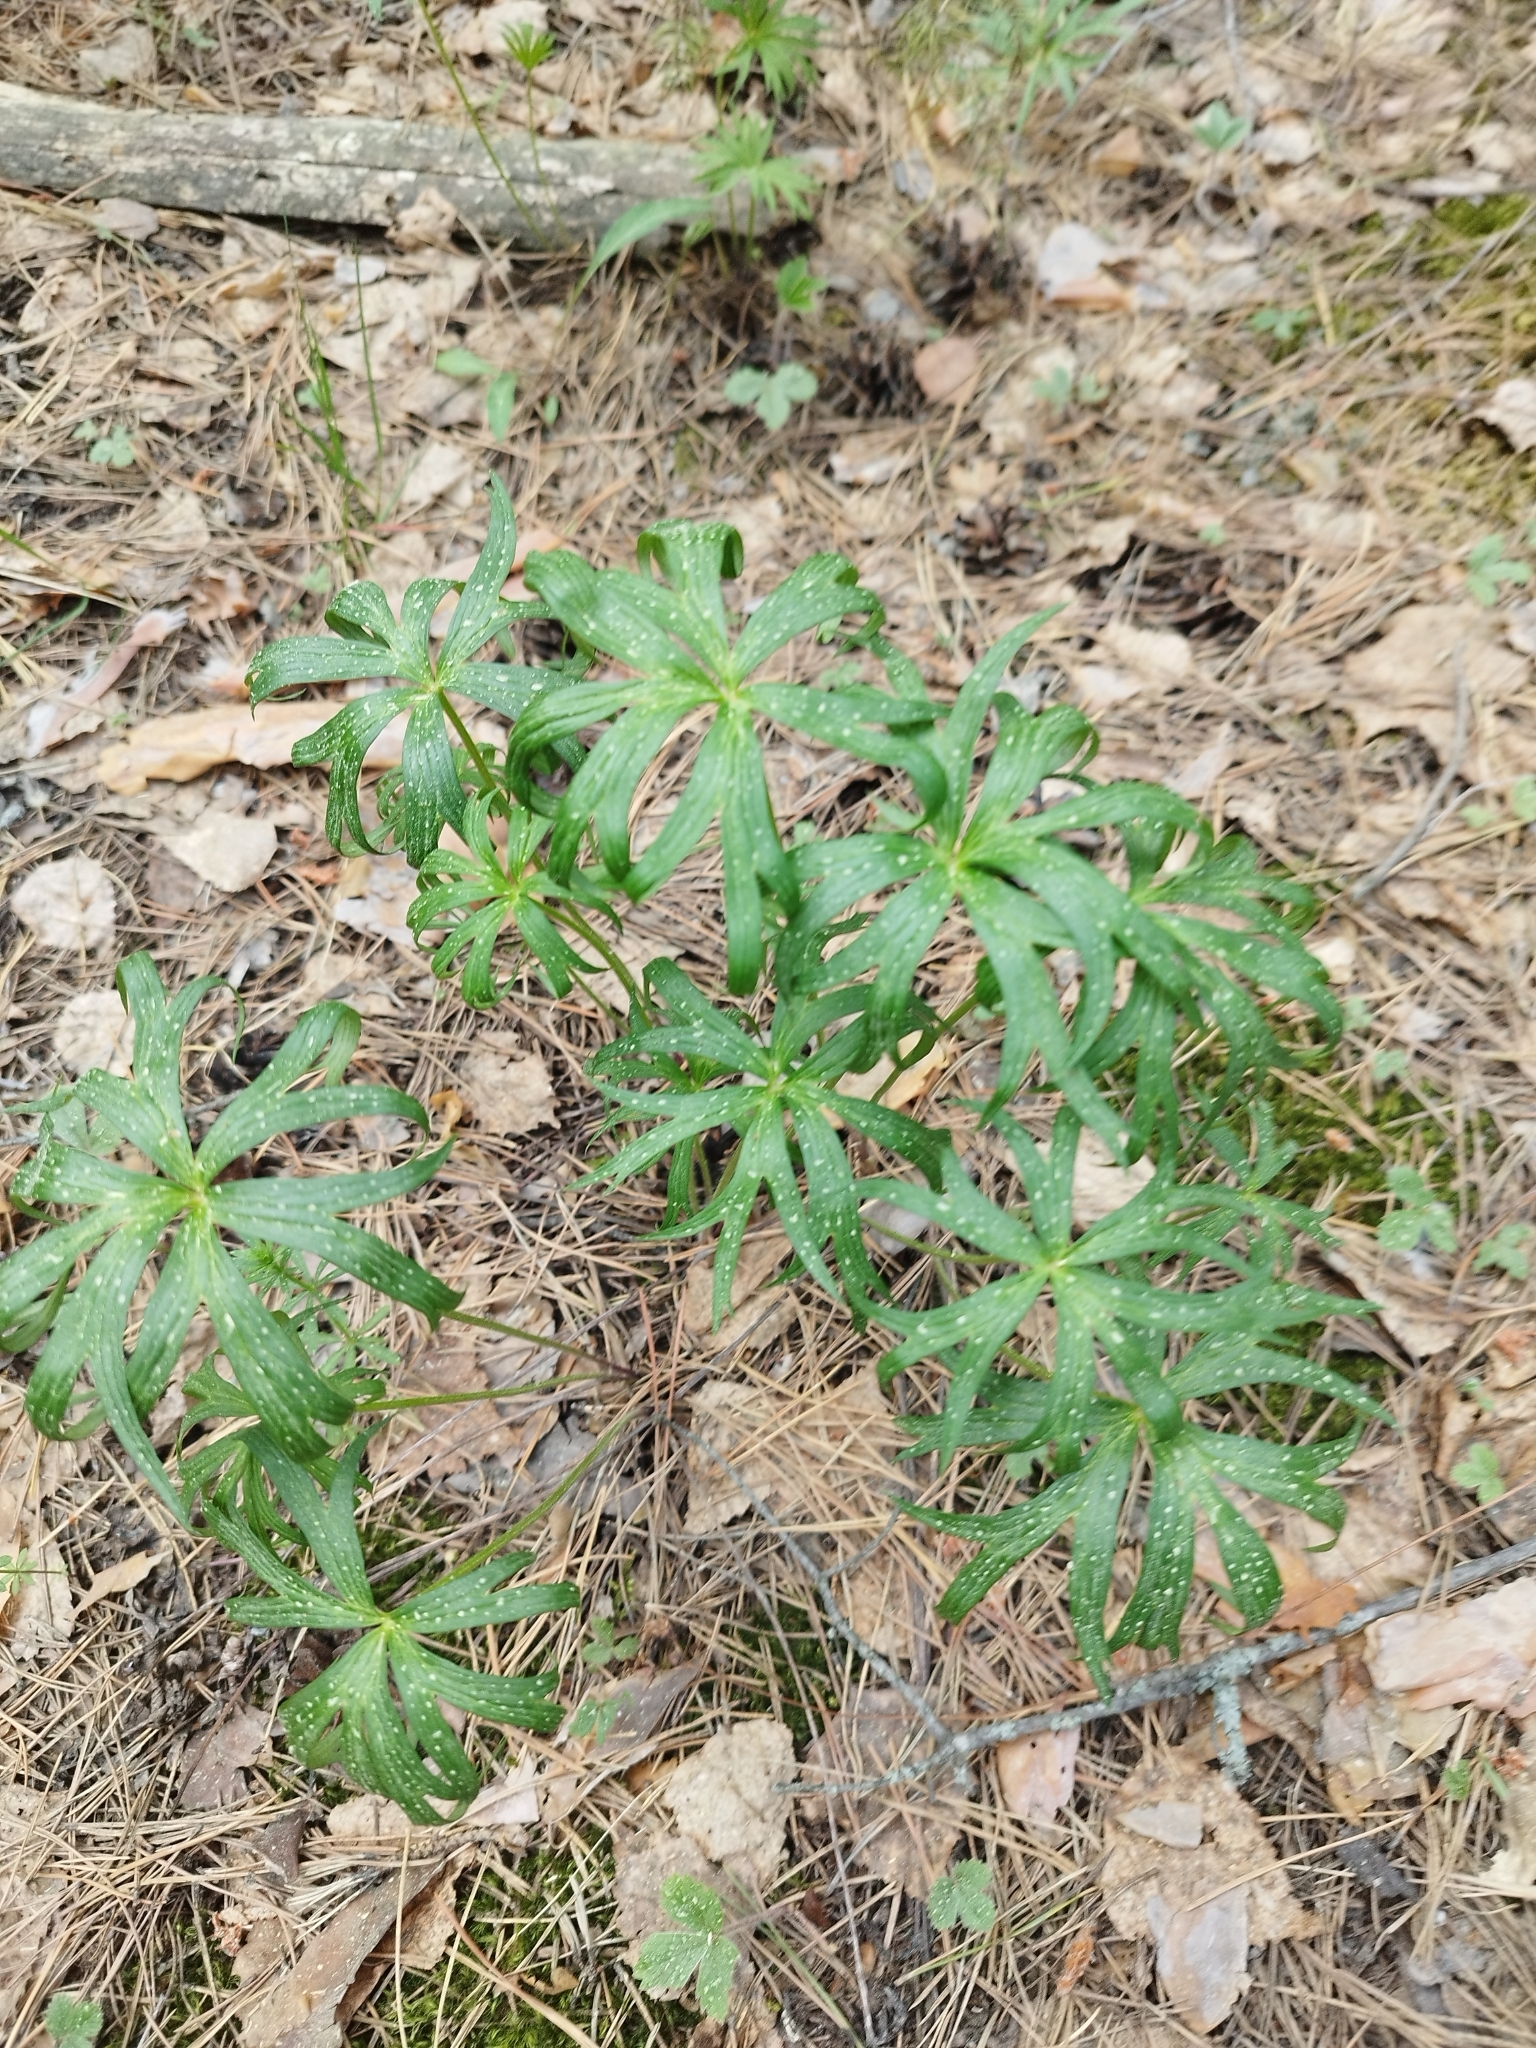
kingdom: Plantae
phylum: Tracheophyta
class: Magnoliopsida
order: Ranunculales
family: Ranunculaceae
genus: Pulsatilla
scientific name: Pulsatilla patens
